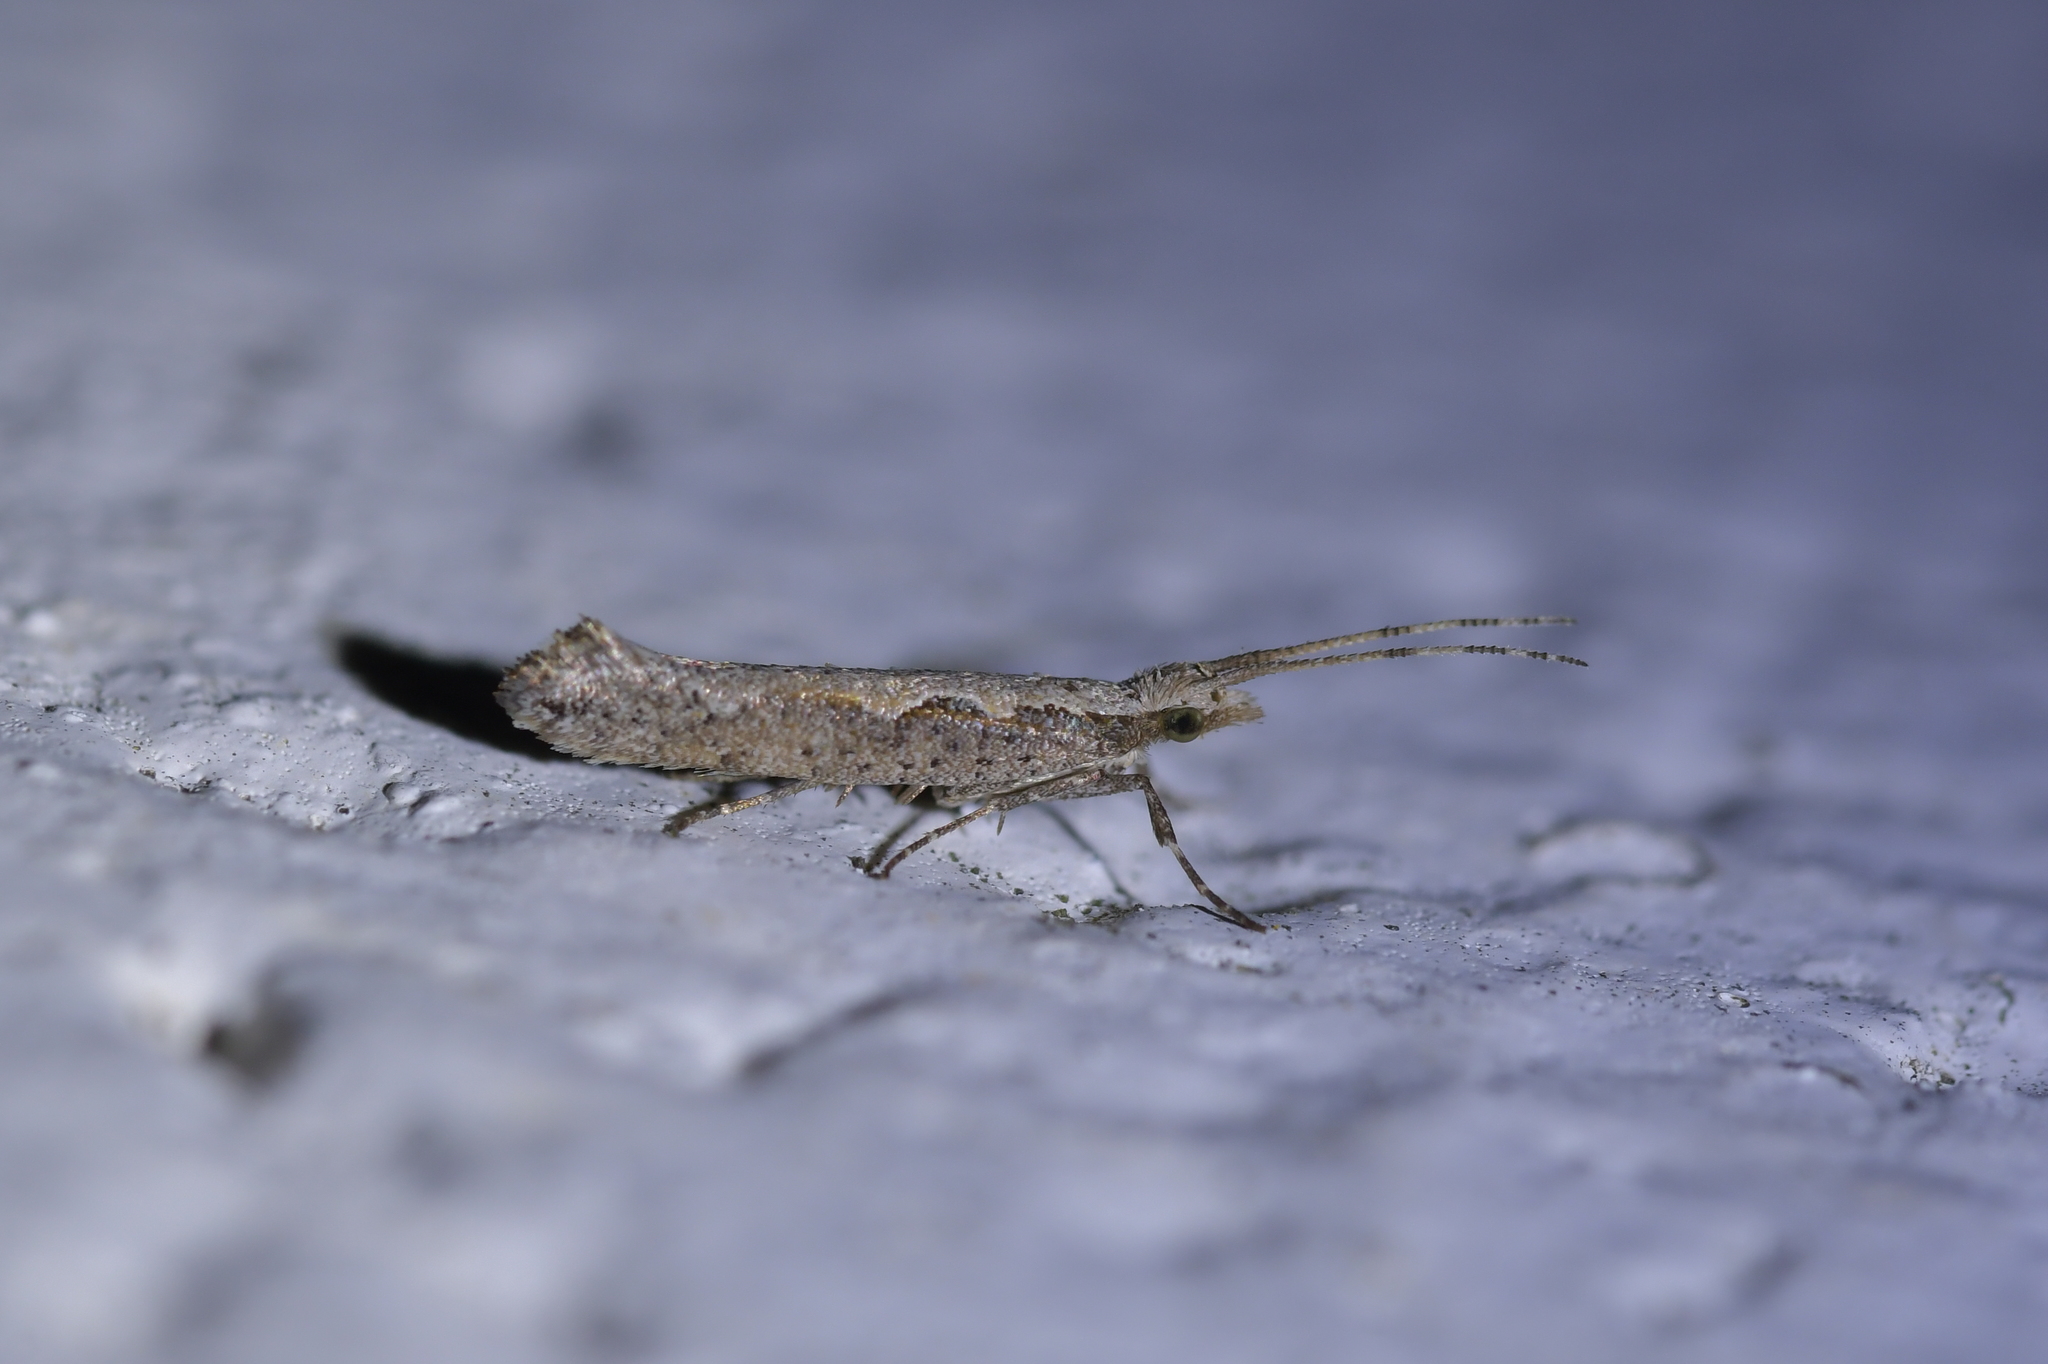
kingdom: Animalia
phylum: Arthropoda
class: Insecta
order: Lepidoptera
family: Plutellidae
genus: Plutella
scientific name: Plutella xylostella
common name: Diamond-back moth
